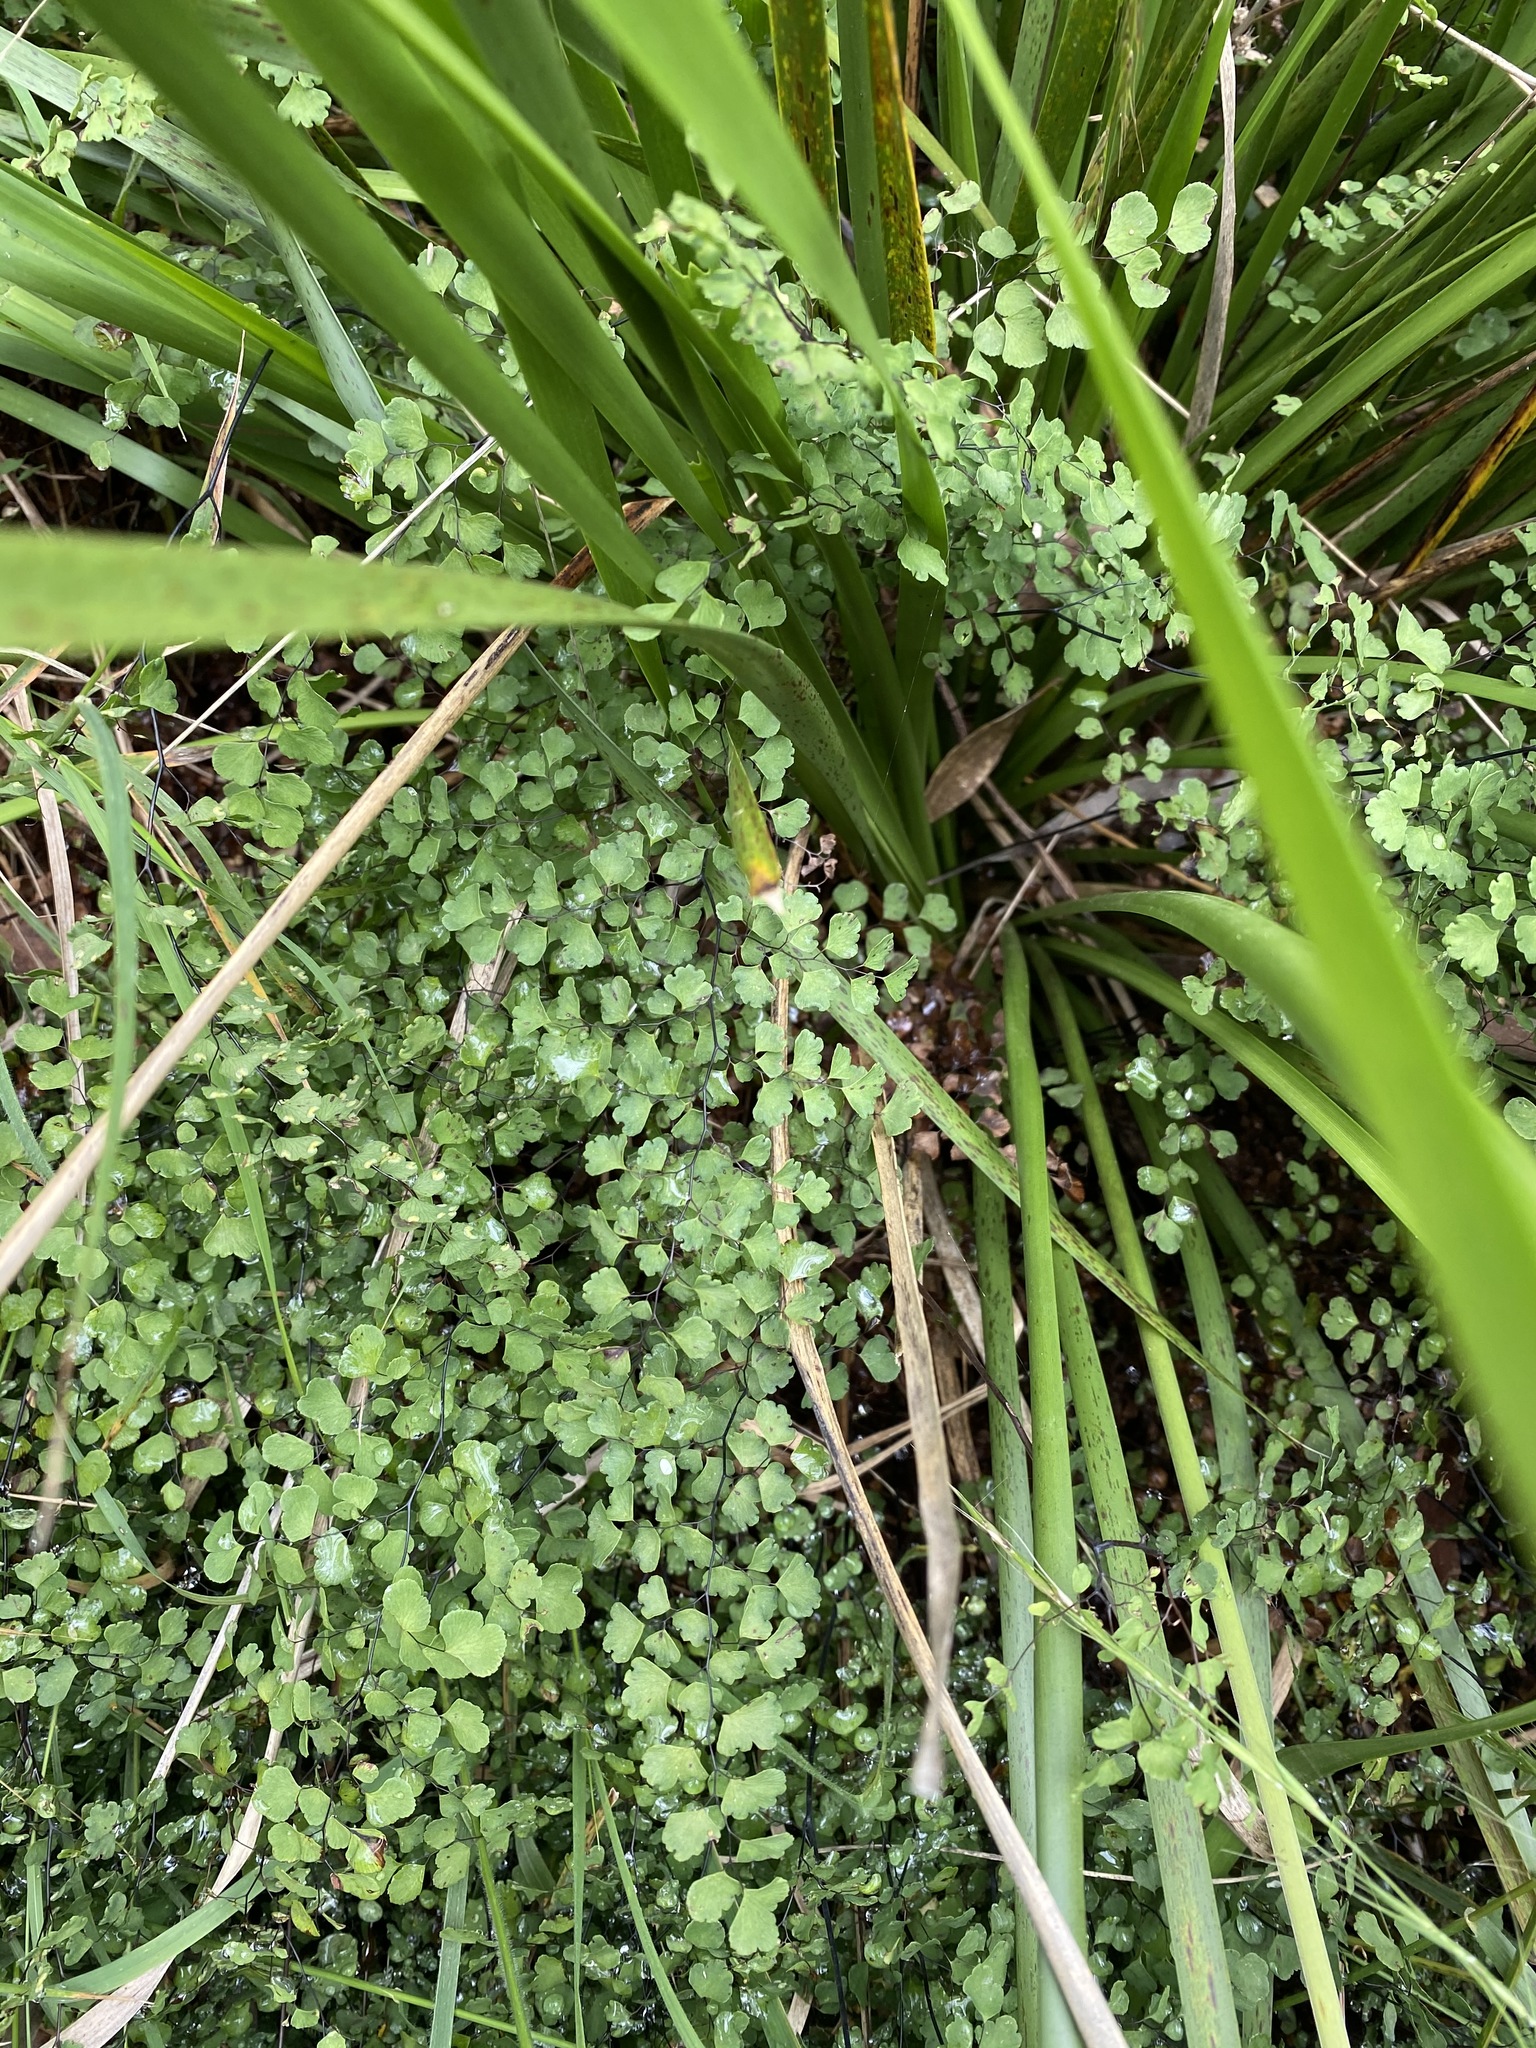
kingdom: Plantae
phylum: Tracheophyta
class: Polypodiopsida
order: Polypodiales
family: Pteridaceae
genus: Adiantum
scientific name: Adiantum aethiopicum
